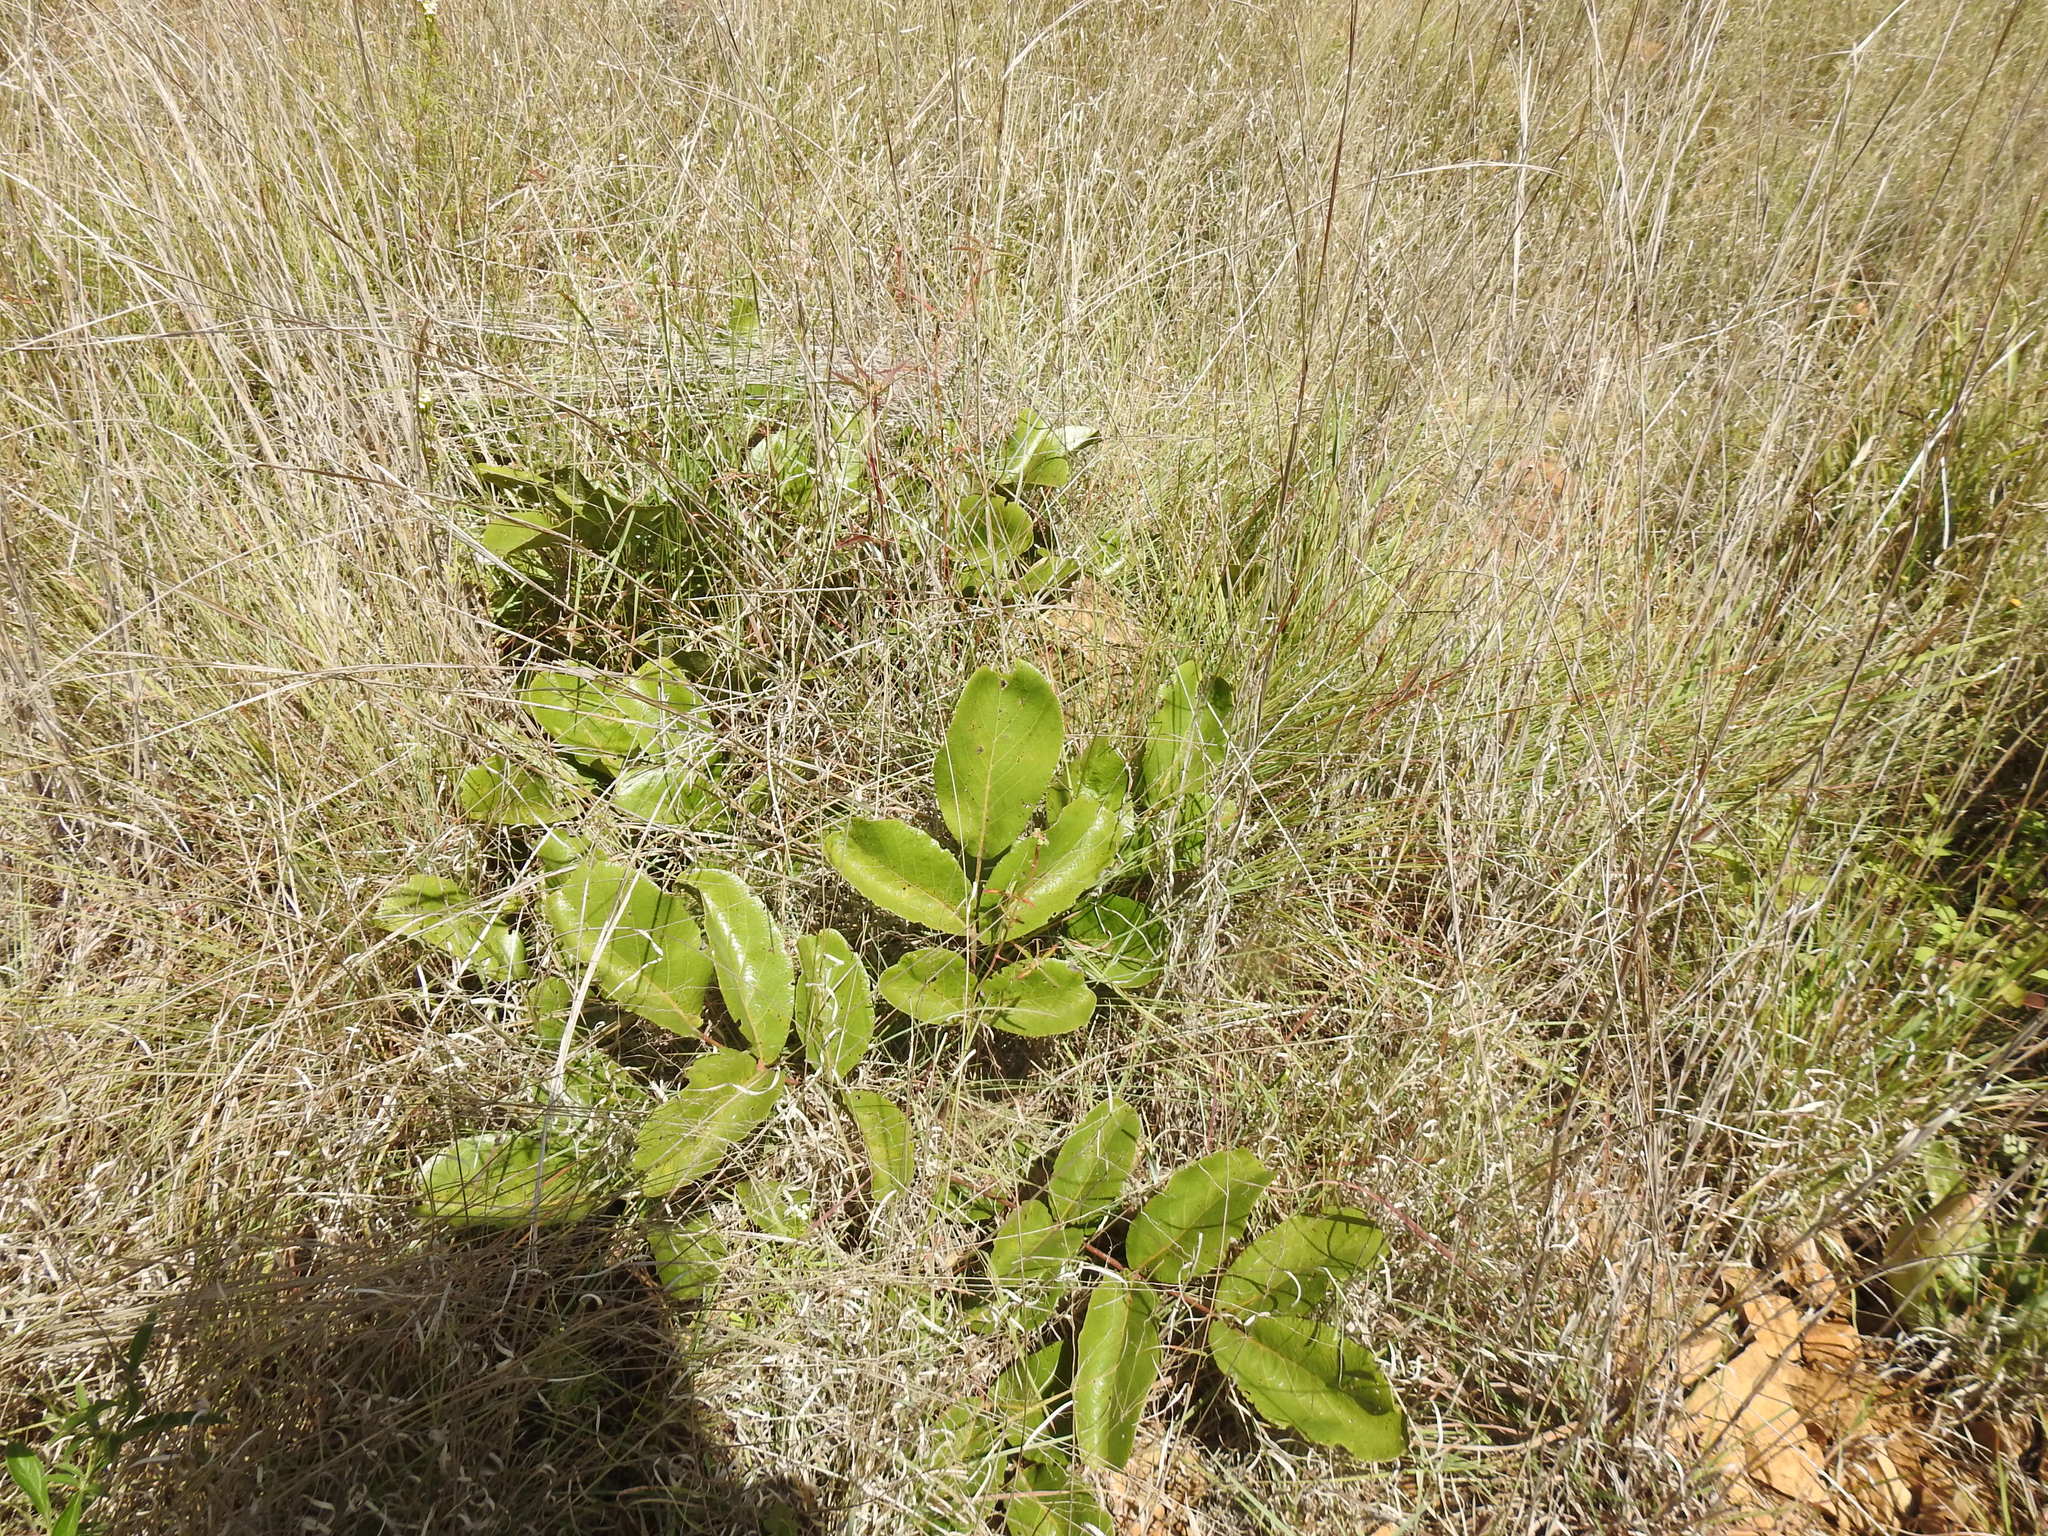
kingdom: Plantae
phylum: Tracheophyta
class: Magnoliopsida
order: Sapindales
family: Anacardiaceae
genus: Lannea
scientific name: Lannea edulis
